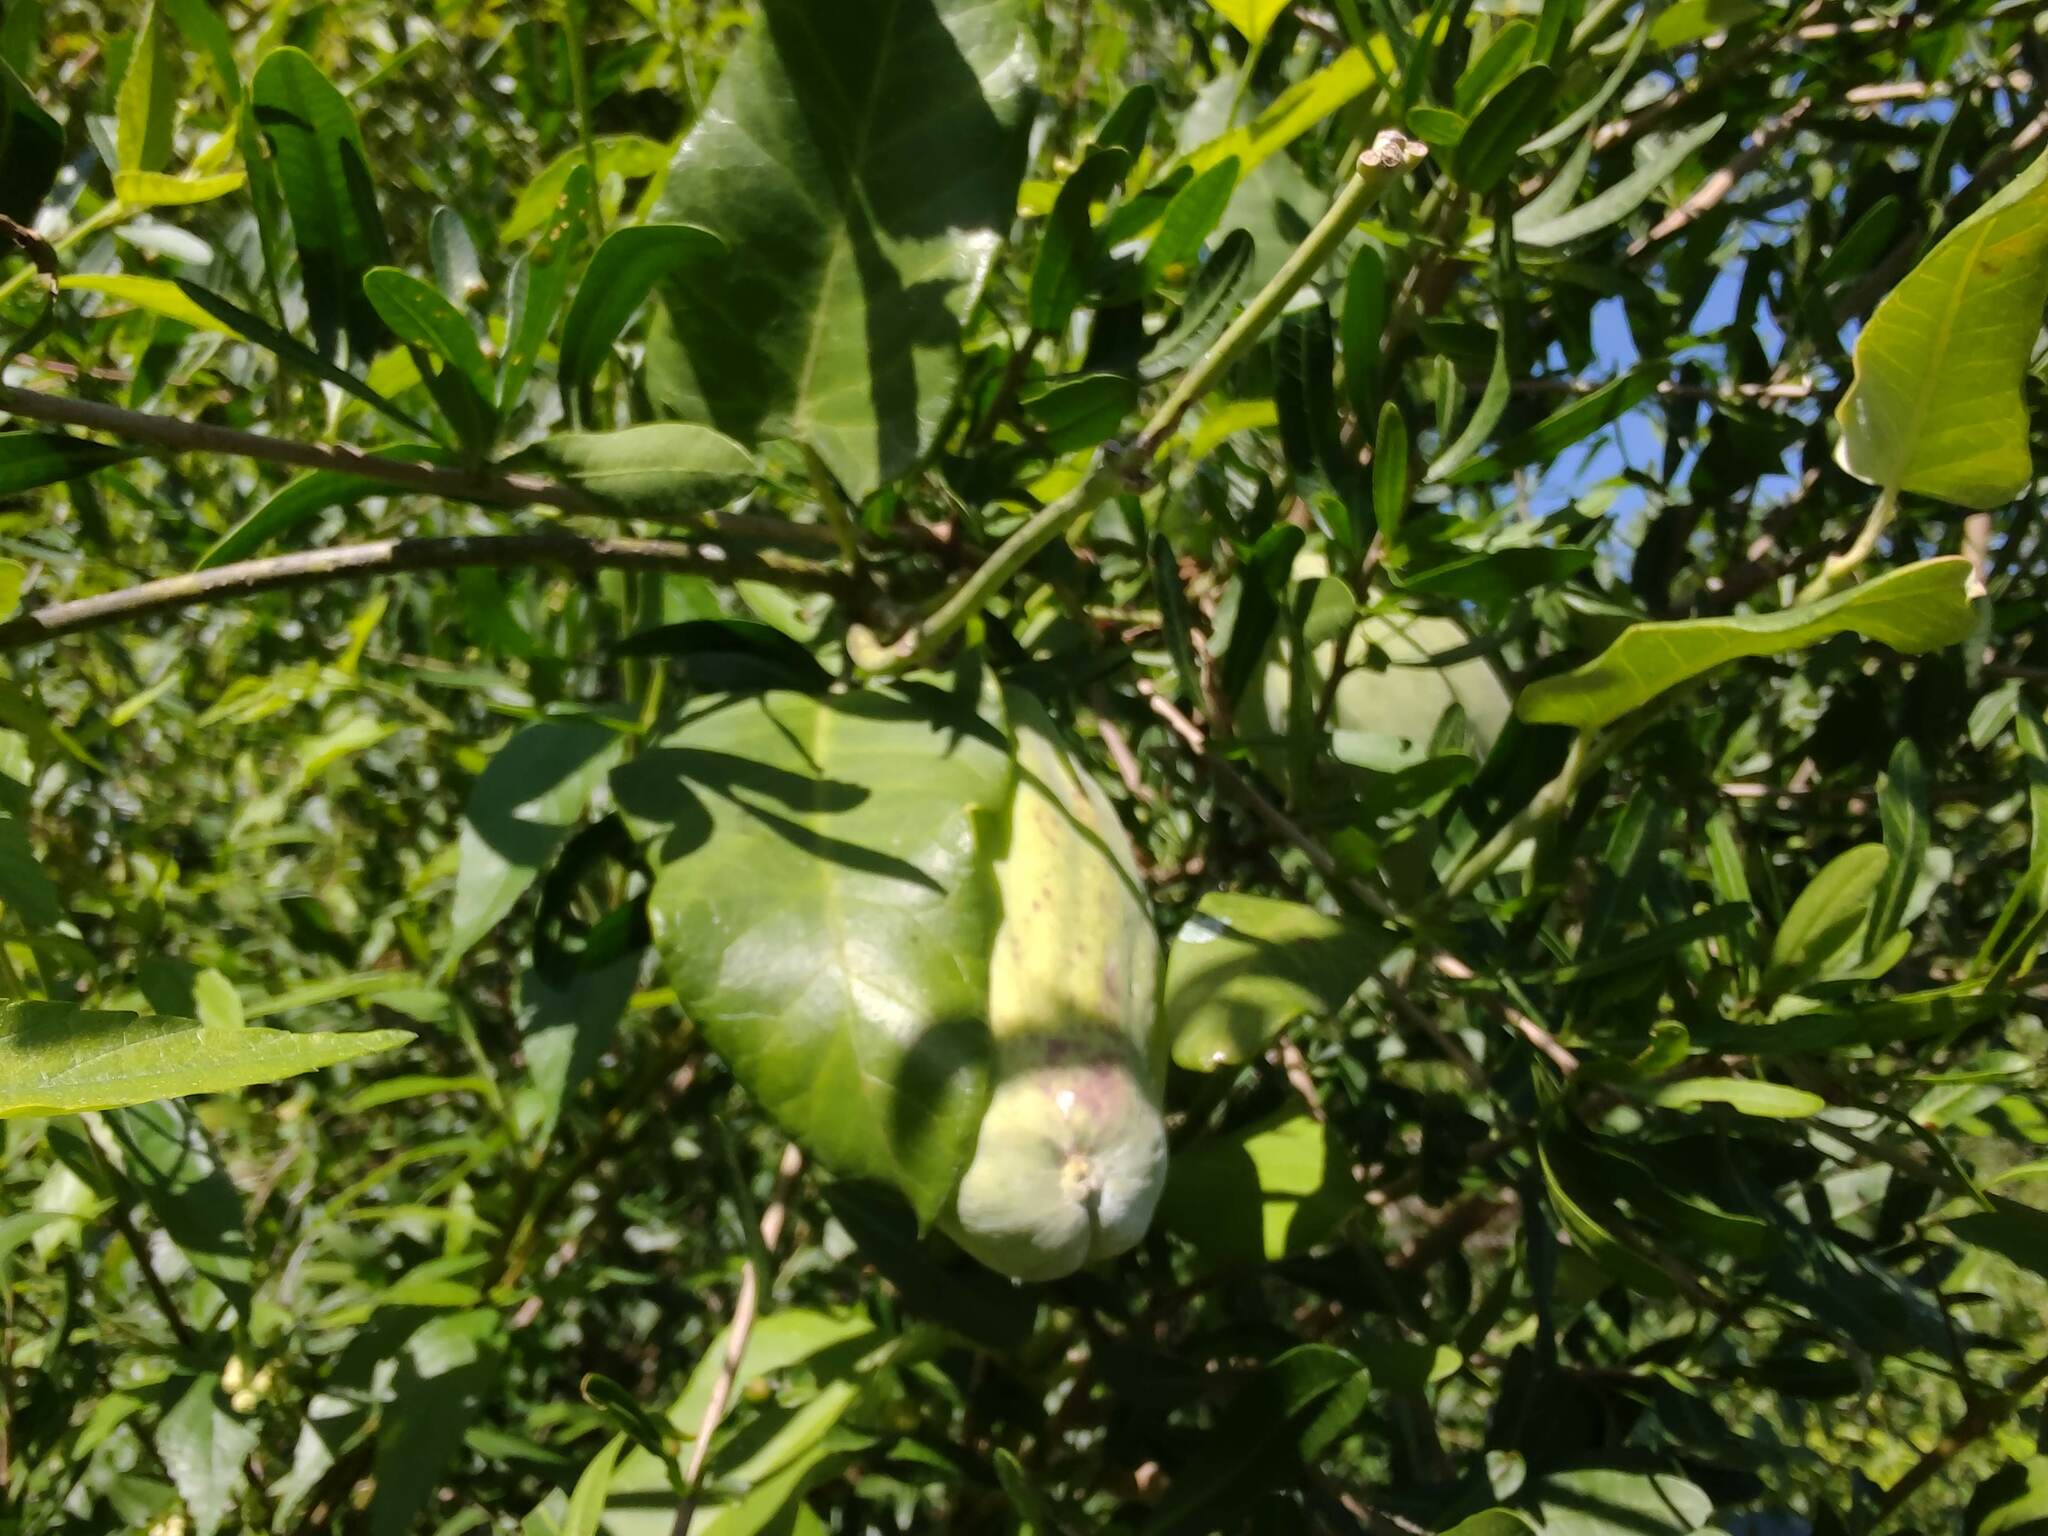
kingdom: Plantae
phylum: Tracheophyta
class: Magnoliopsida
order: Gentianales
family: Apocynaceae
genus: Araujia
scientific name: Araujia sericifera
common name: White bladderflower
